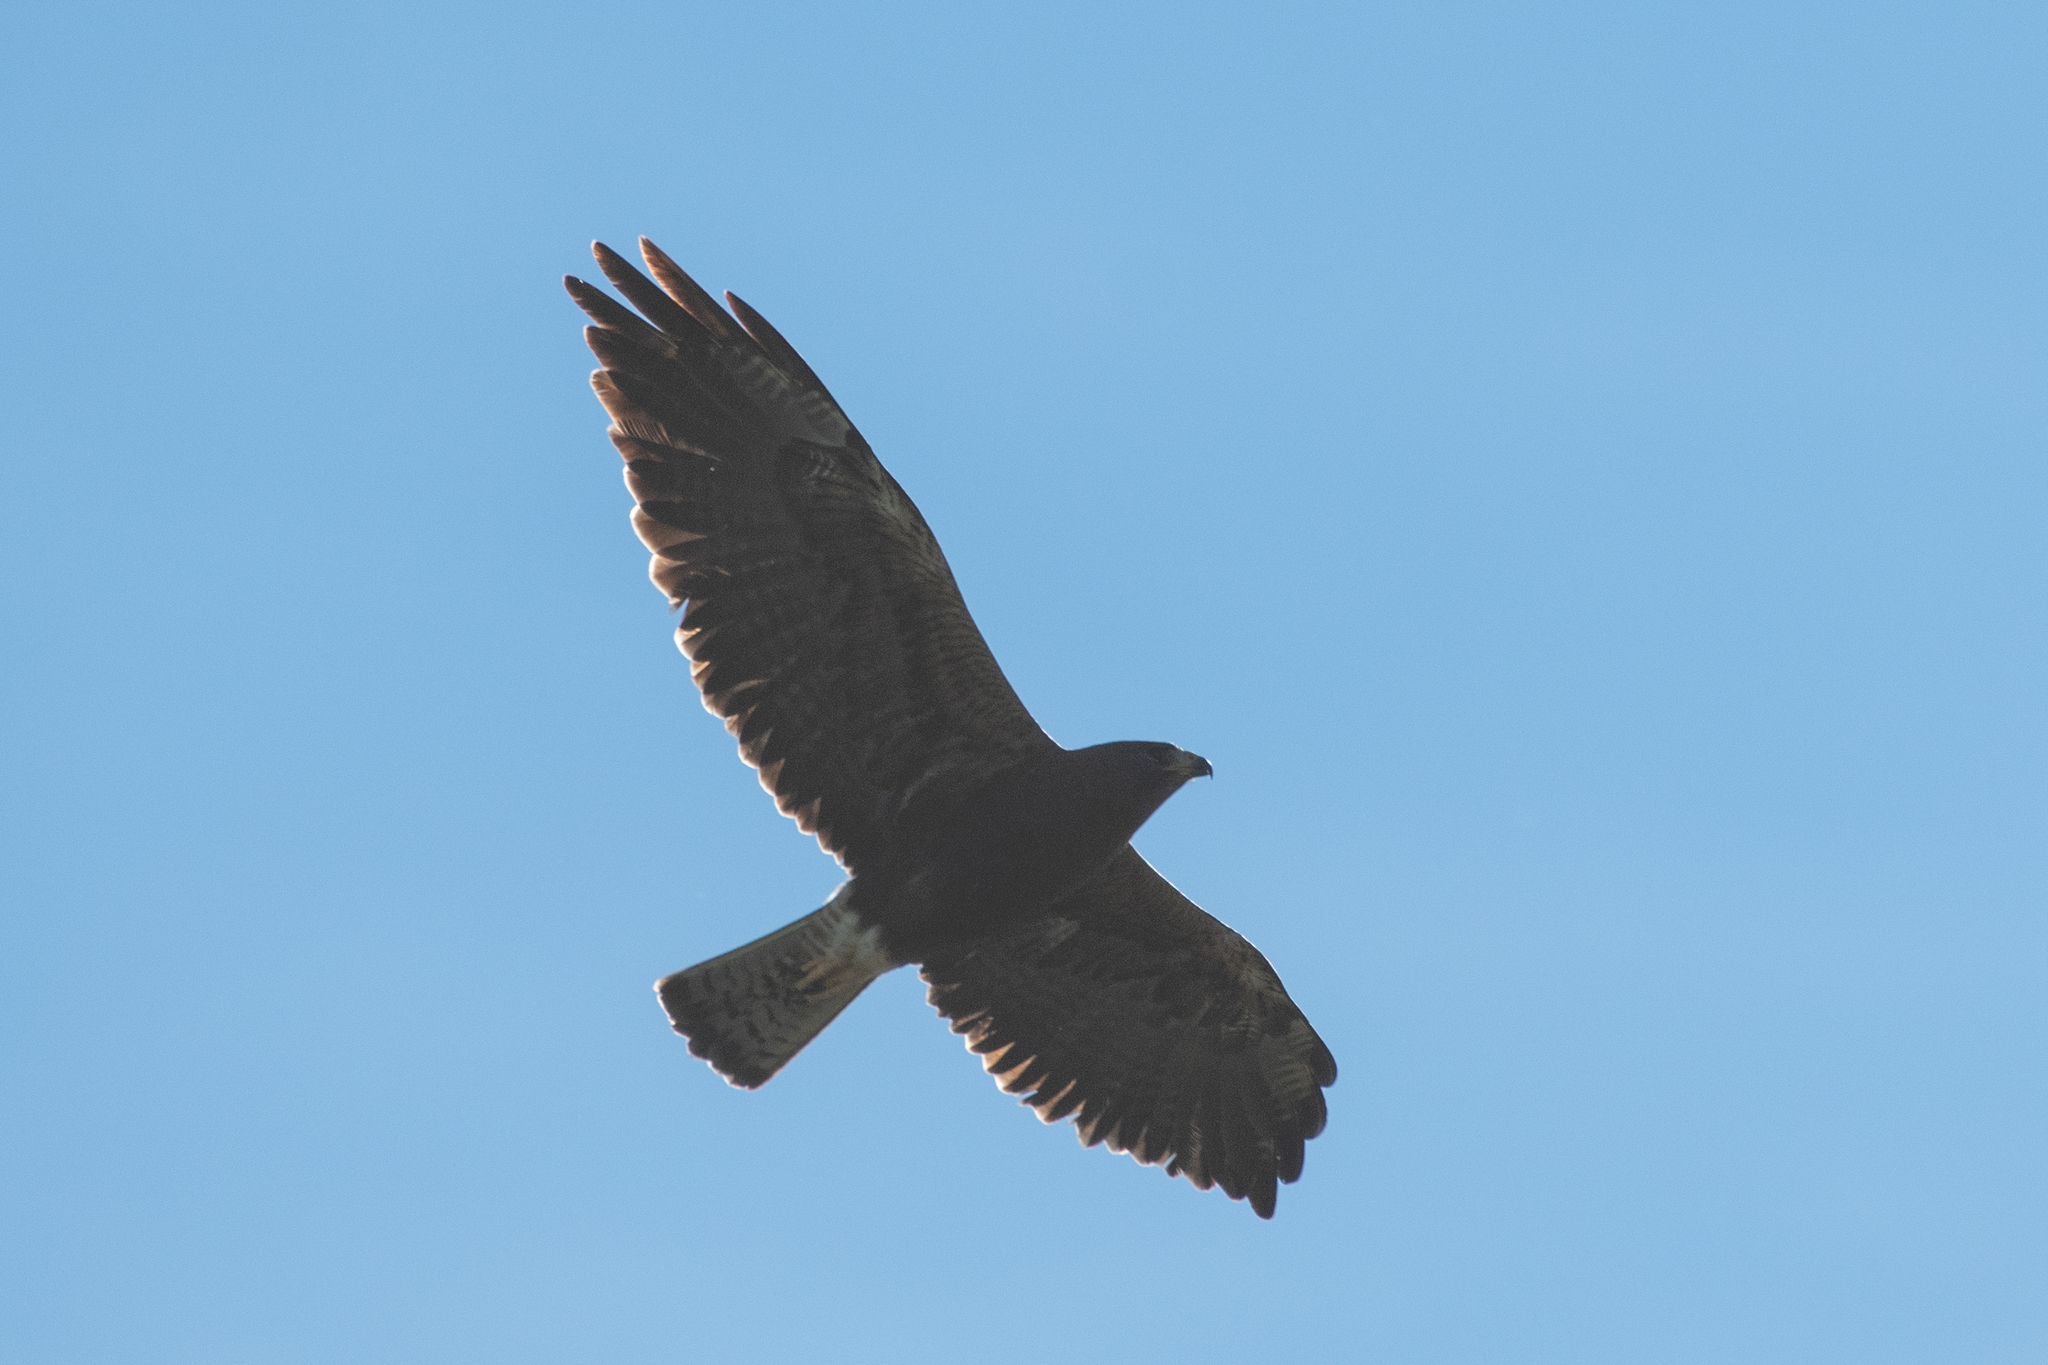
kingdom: Animalia
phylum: Chordata
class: Aves
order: Accipitriformes
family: Accipitridae
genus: Buteo
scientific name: Buteo swainsoni
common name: Swainson's hawk
